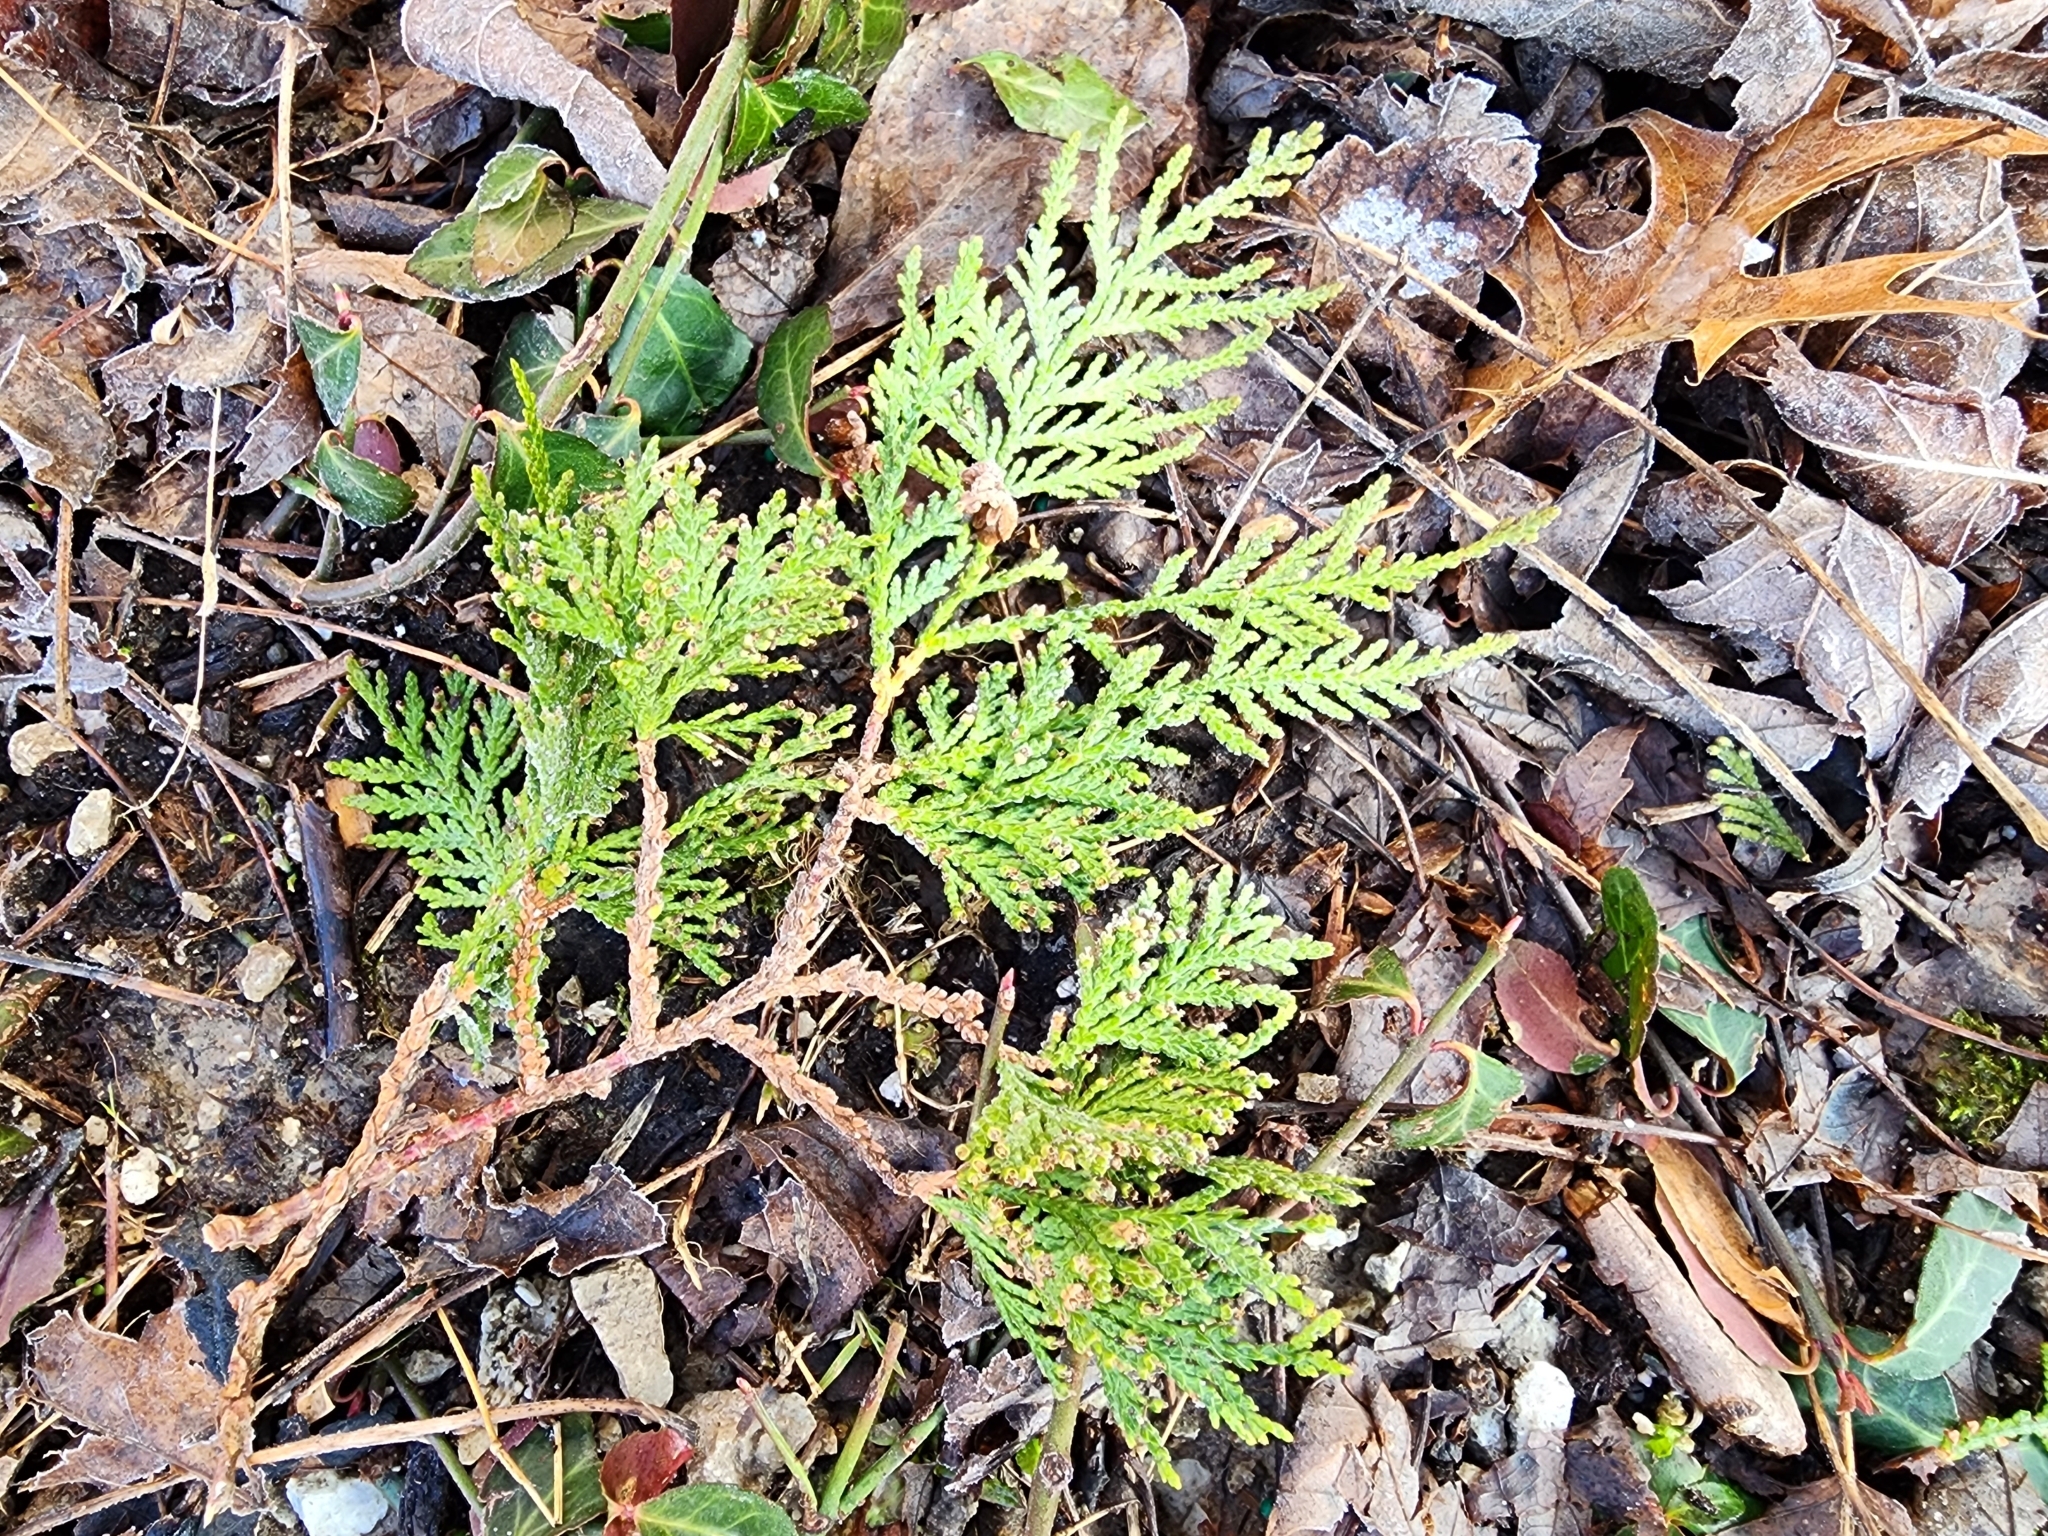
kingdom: Plantae
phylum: Tracheophyta
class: Pinopsida
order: Pinales
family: Cupressaceae
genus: Thuja
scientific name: Thuja occidentalis
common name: Northern white-cedar
